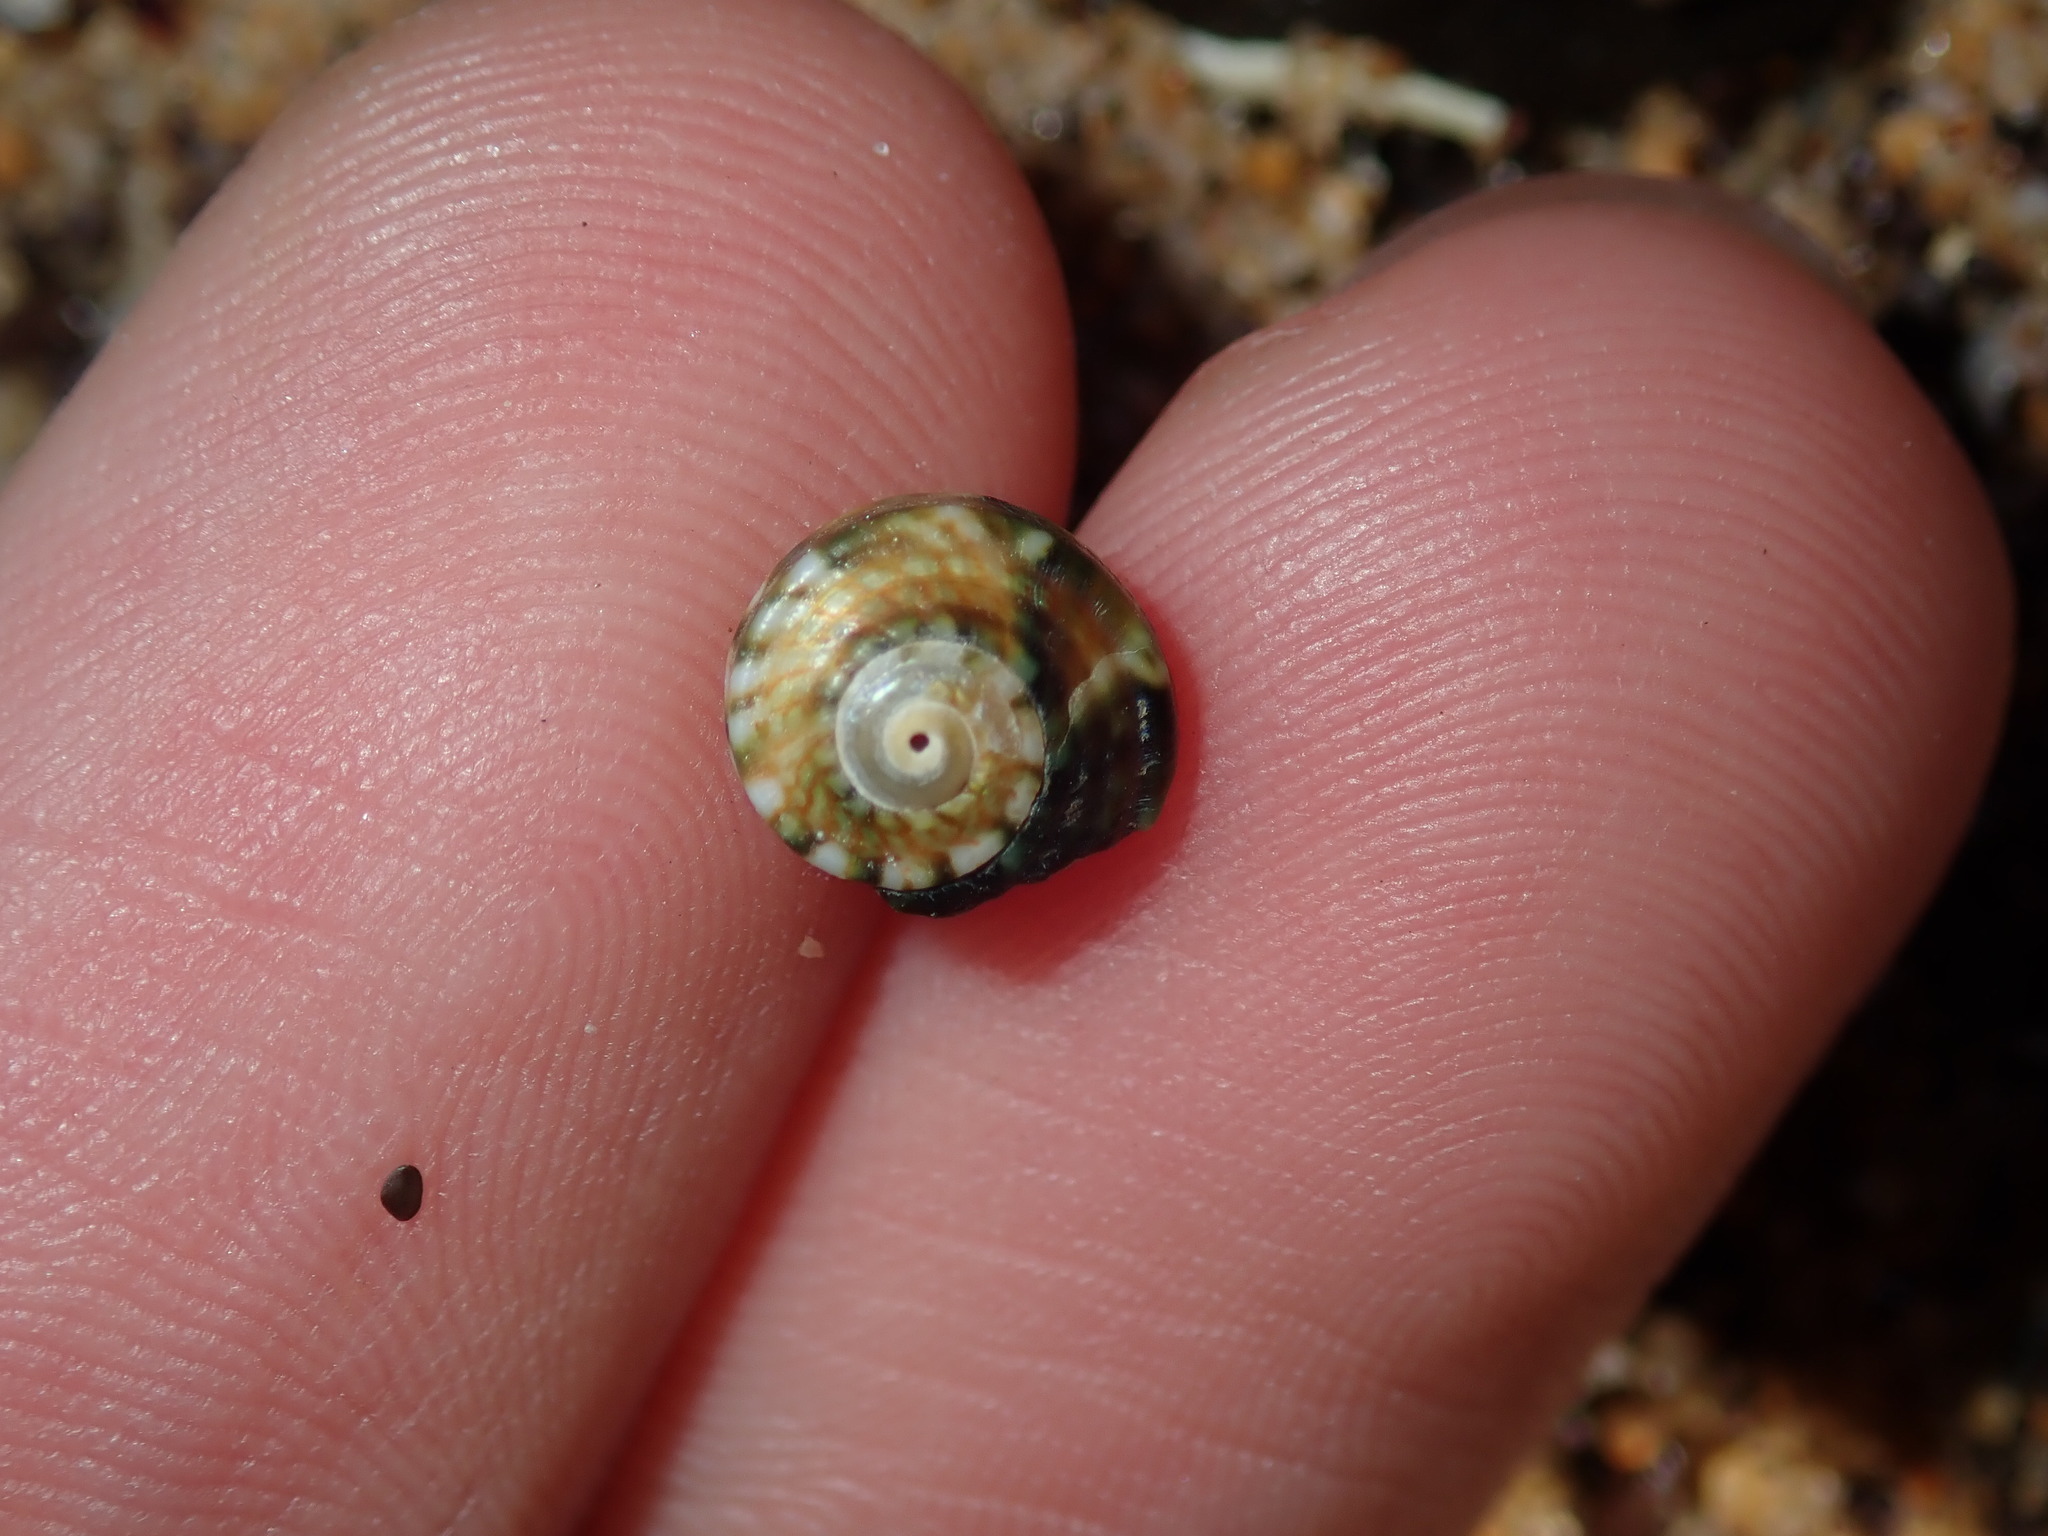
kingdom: Animalia
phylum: Mollusca
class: Gastropoda
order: Trochida
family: Turbinidae
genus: Lunella
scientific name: Lunella undulata
